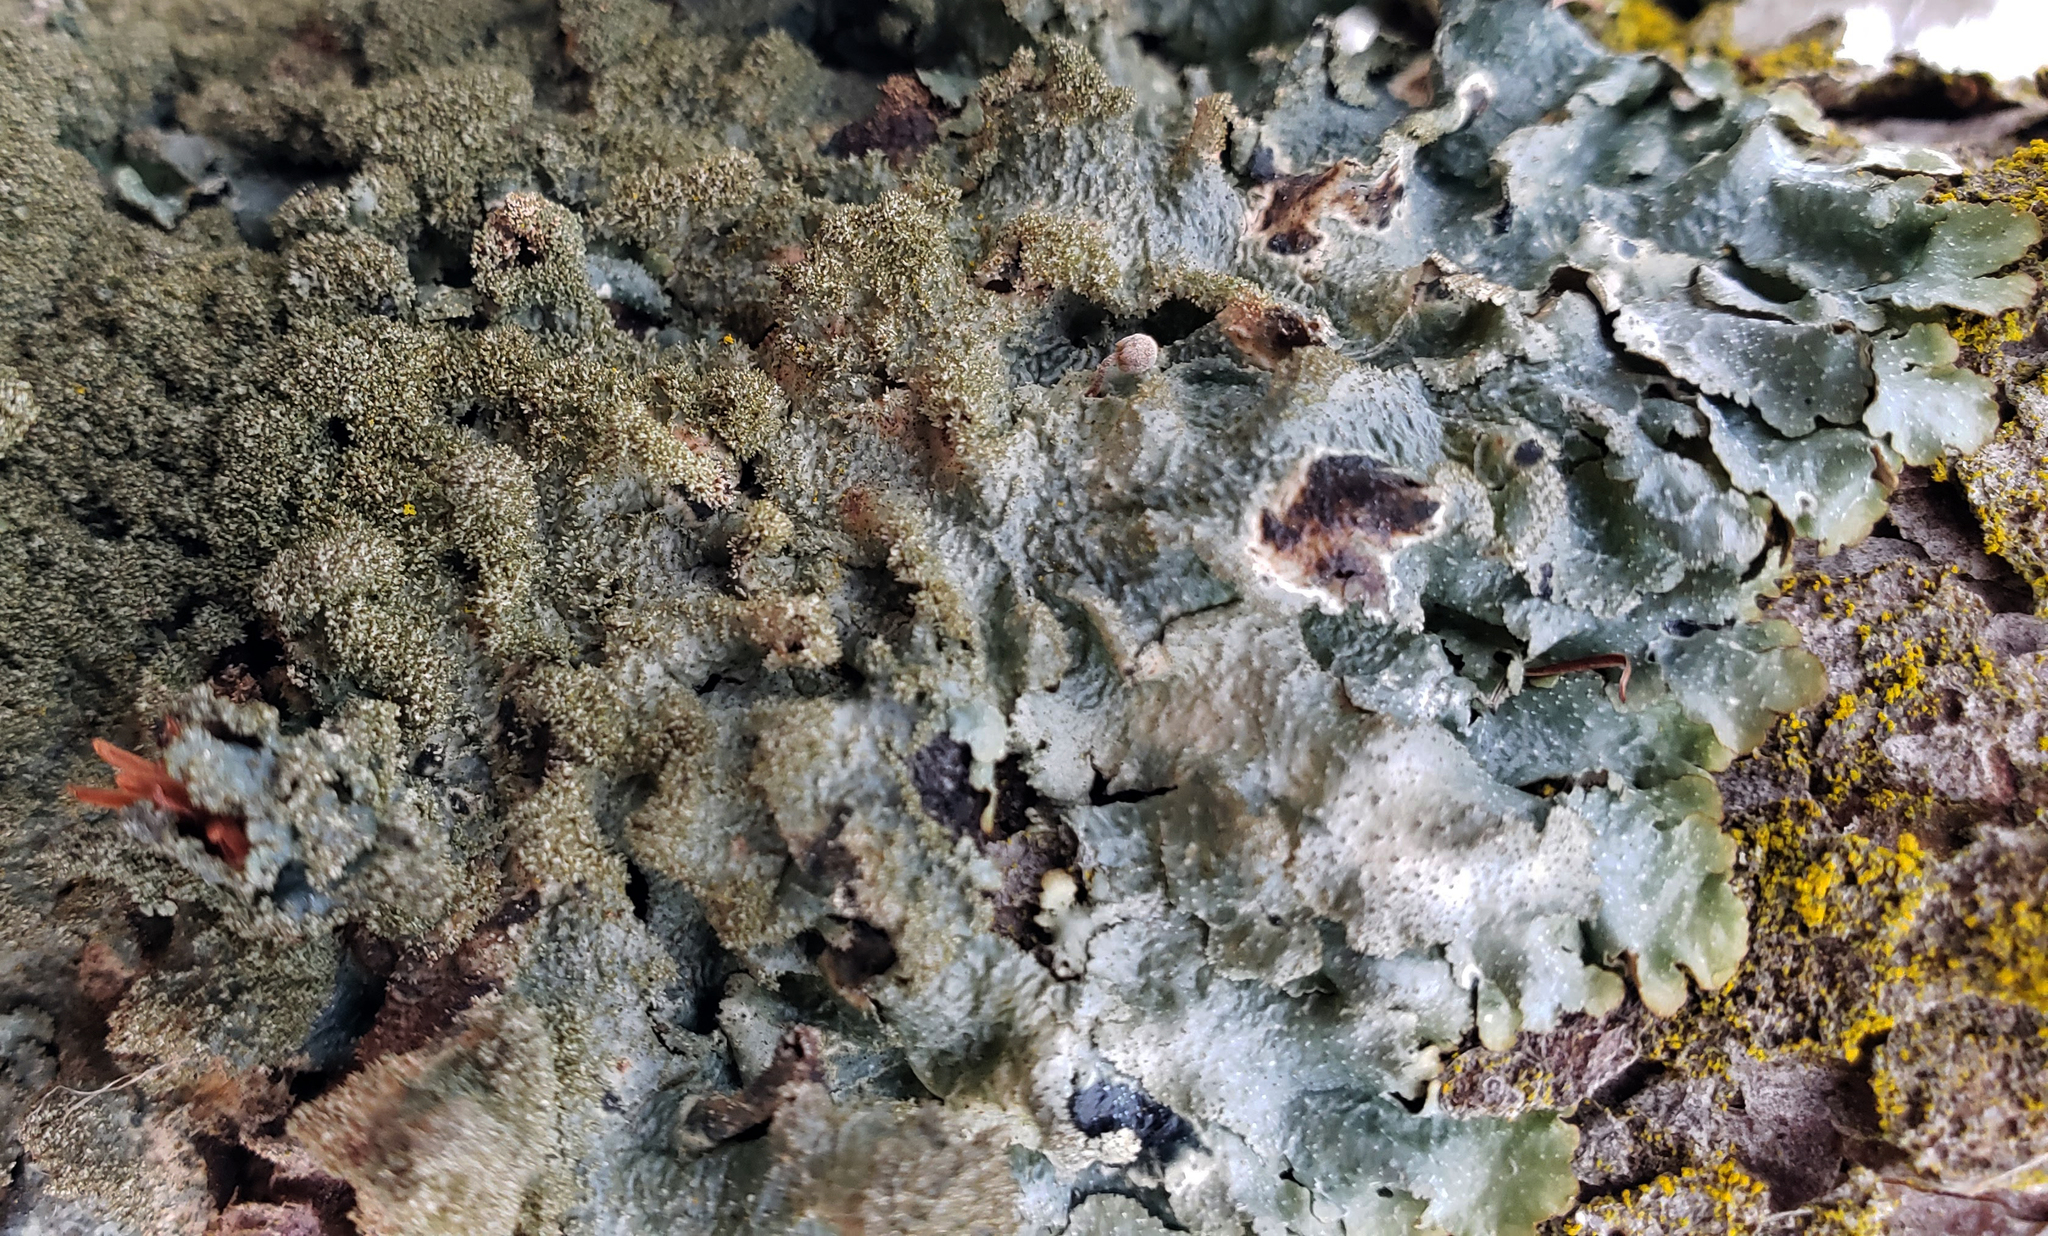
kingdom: Fungi
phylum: Ascomycota
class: Lecanoromycetes
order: Lecanorales
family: Parmeliaceae
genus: Punctelia
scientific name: Punctelia rudecta
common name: Rough speckled shield lichen
